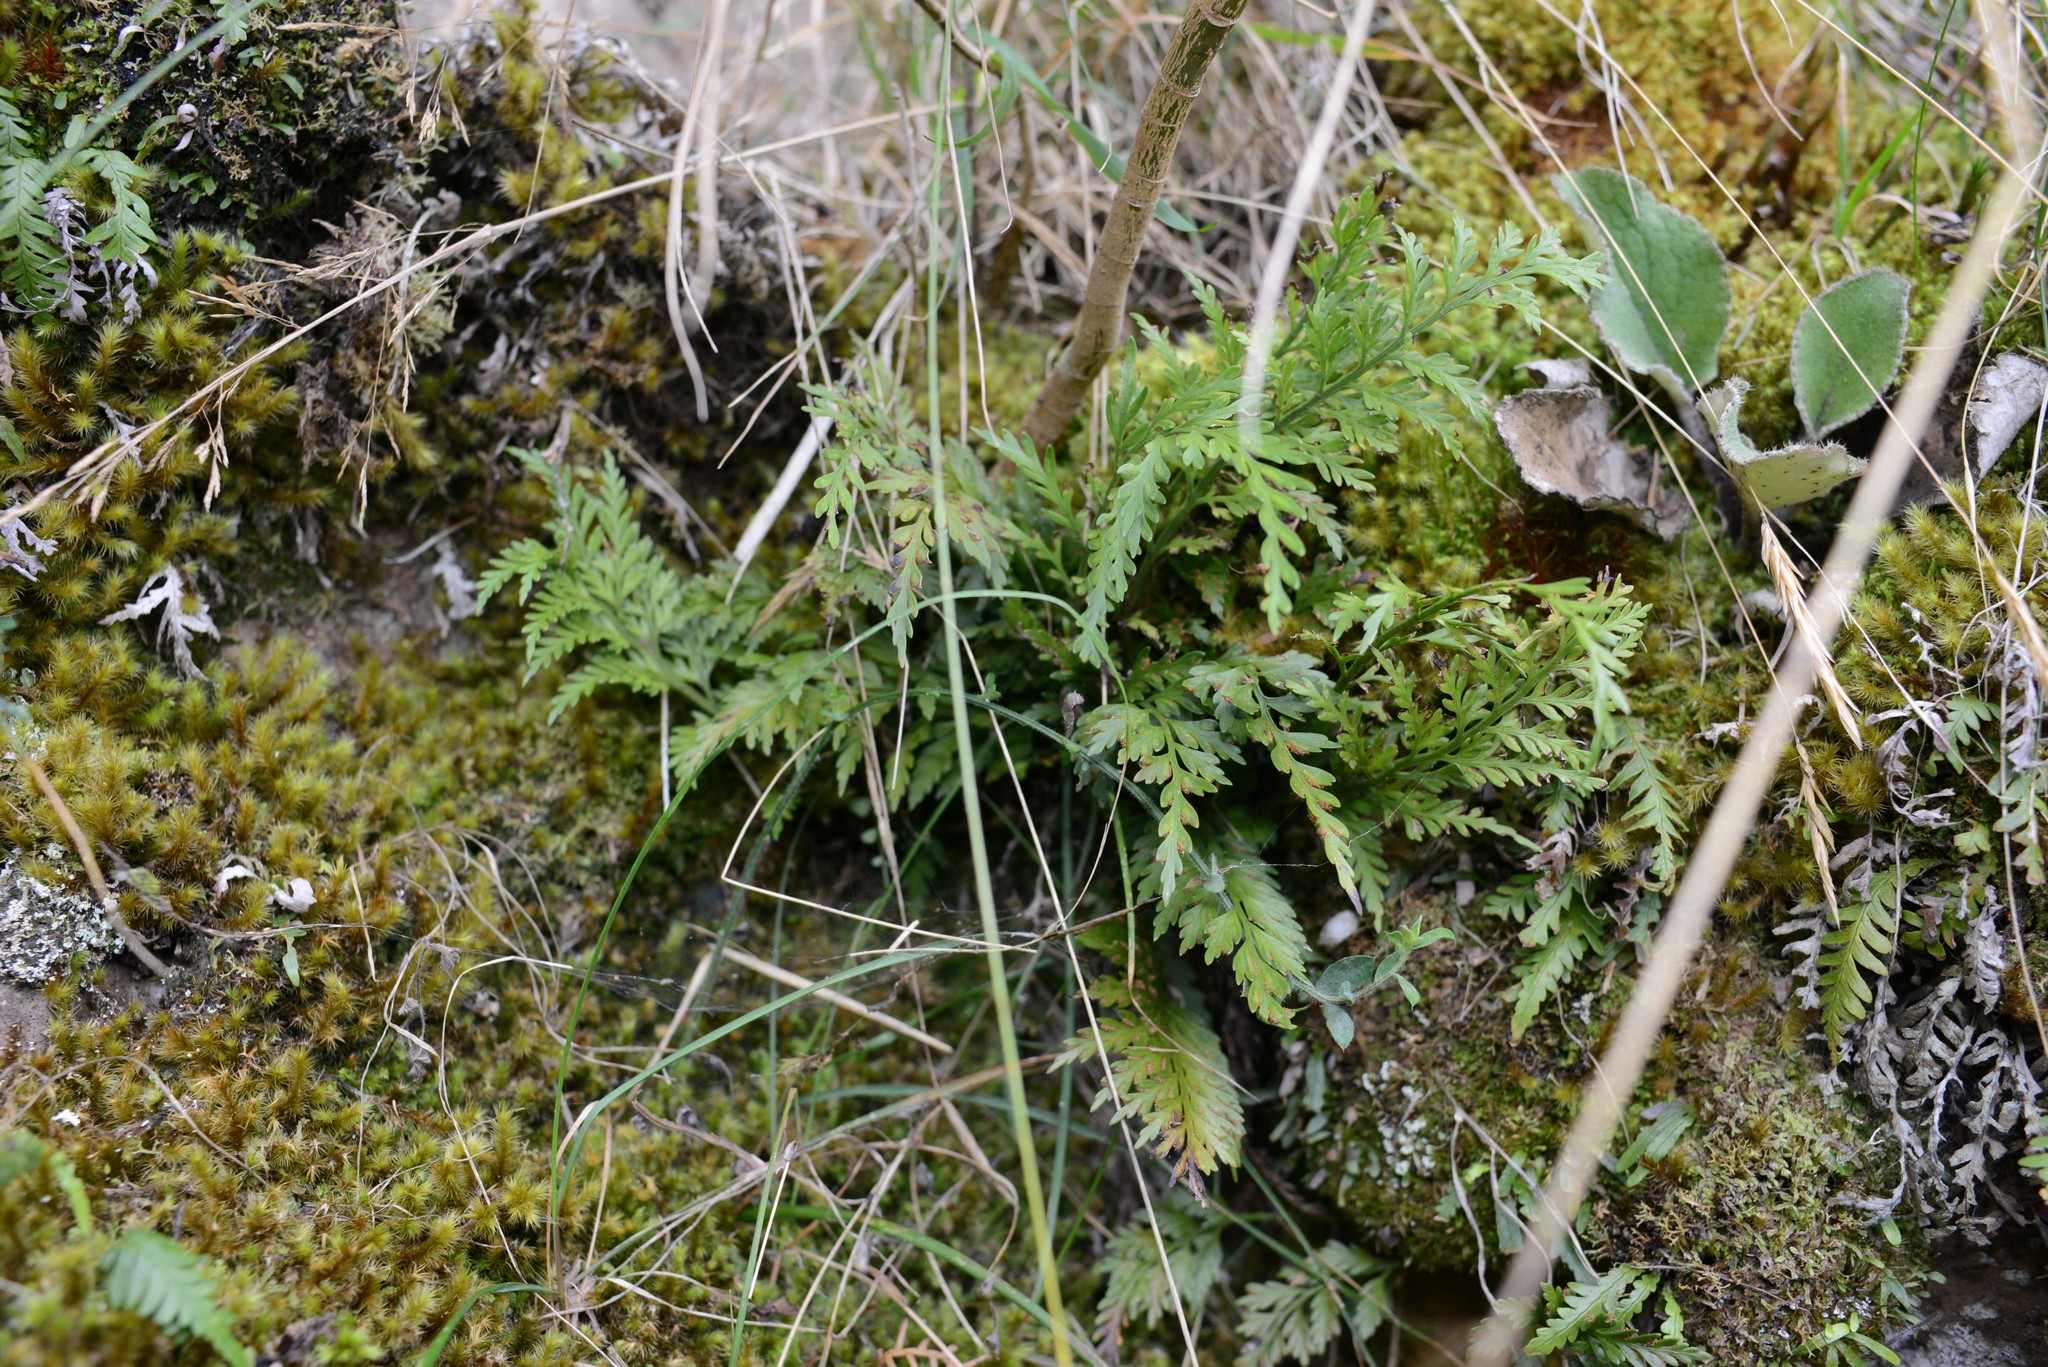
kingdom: Plantae
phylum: Tracheophyta
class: Polypodiopsida
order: Polypodiales
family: Aspleniaceae
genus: Asplenium
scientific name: Asplenium appendiculatum
